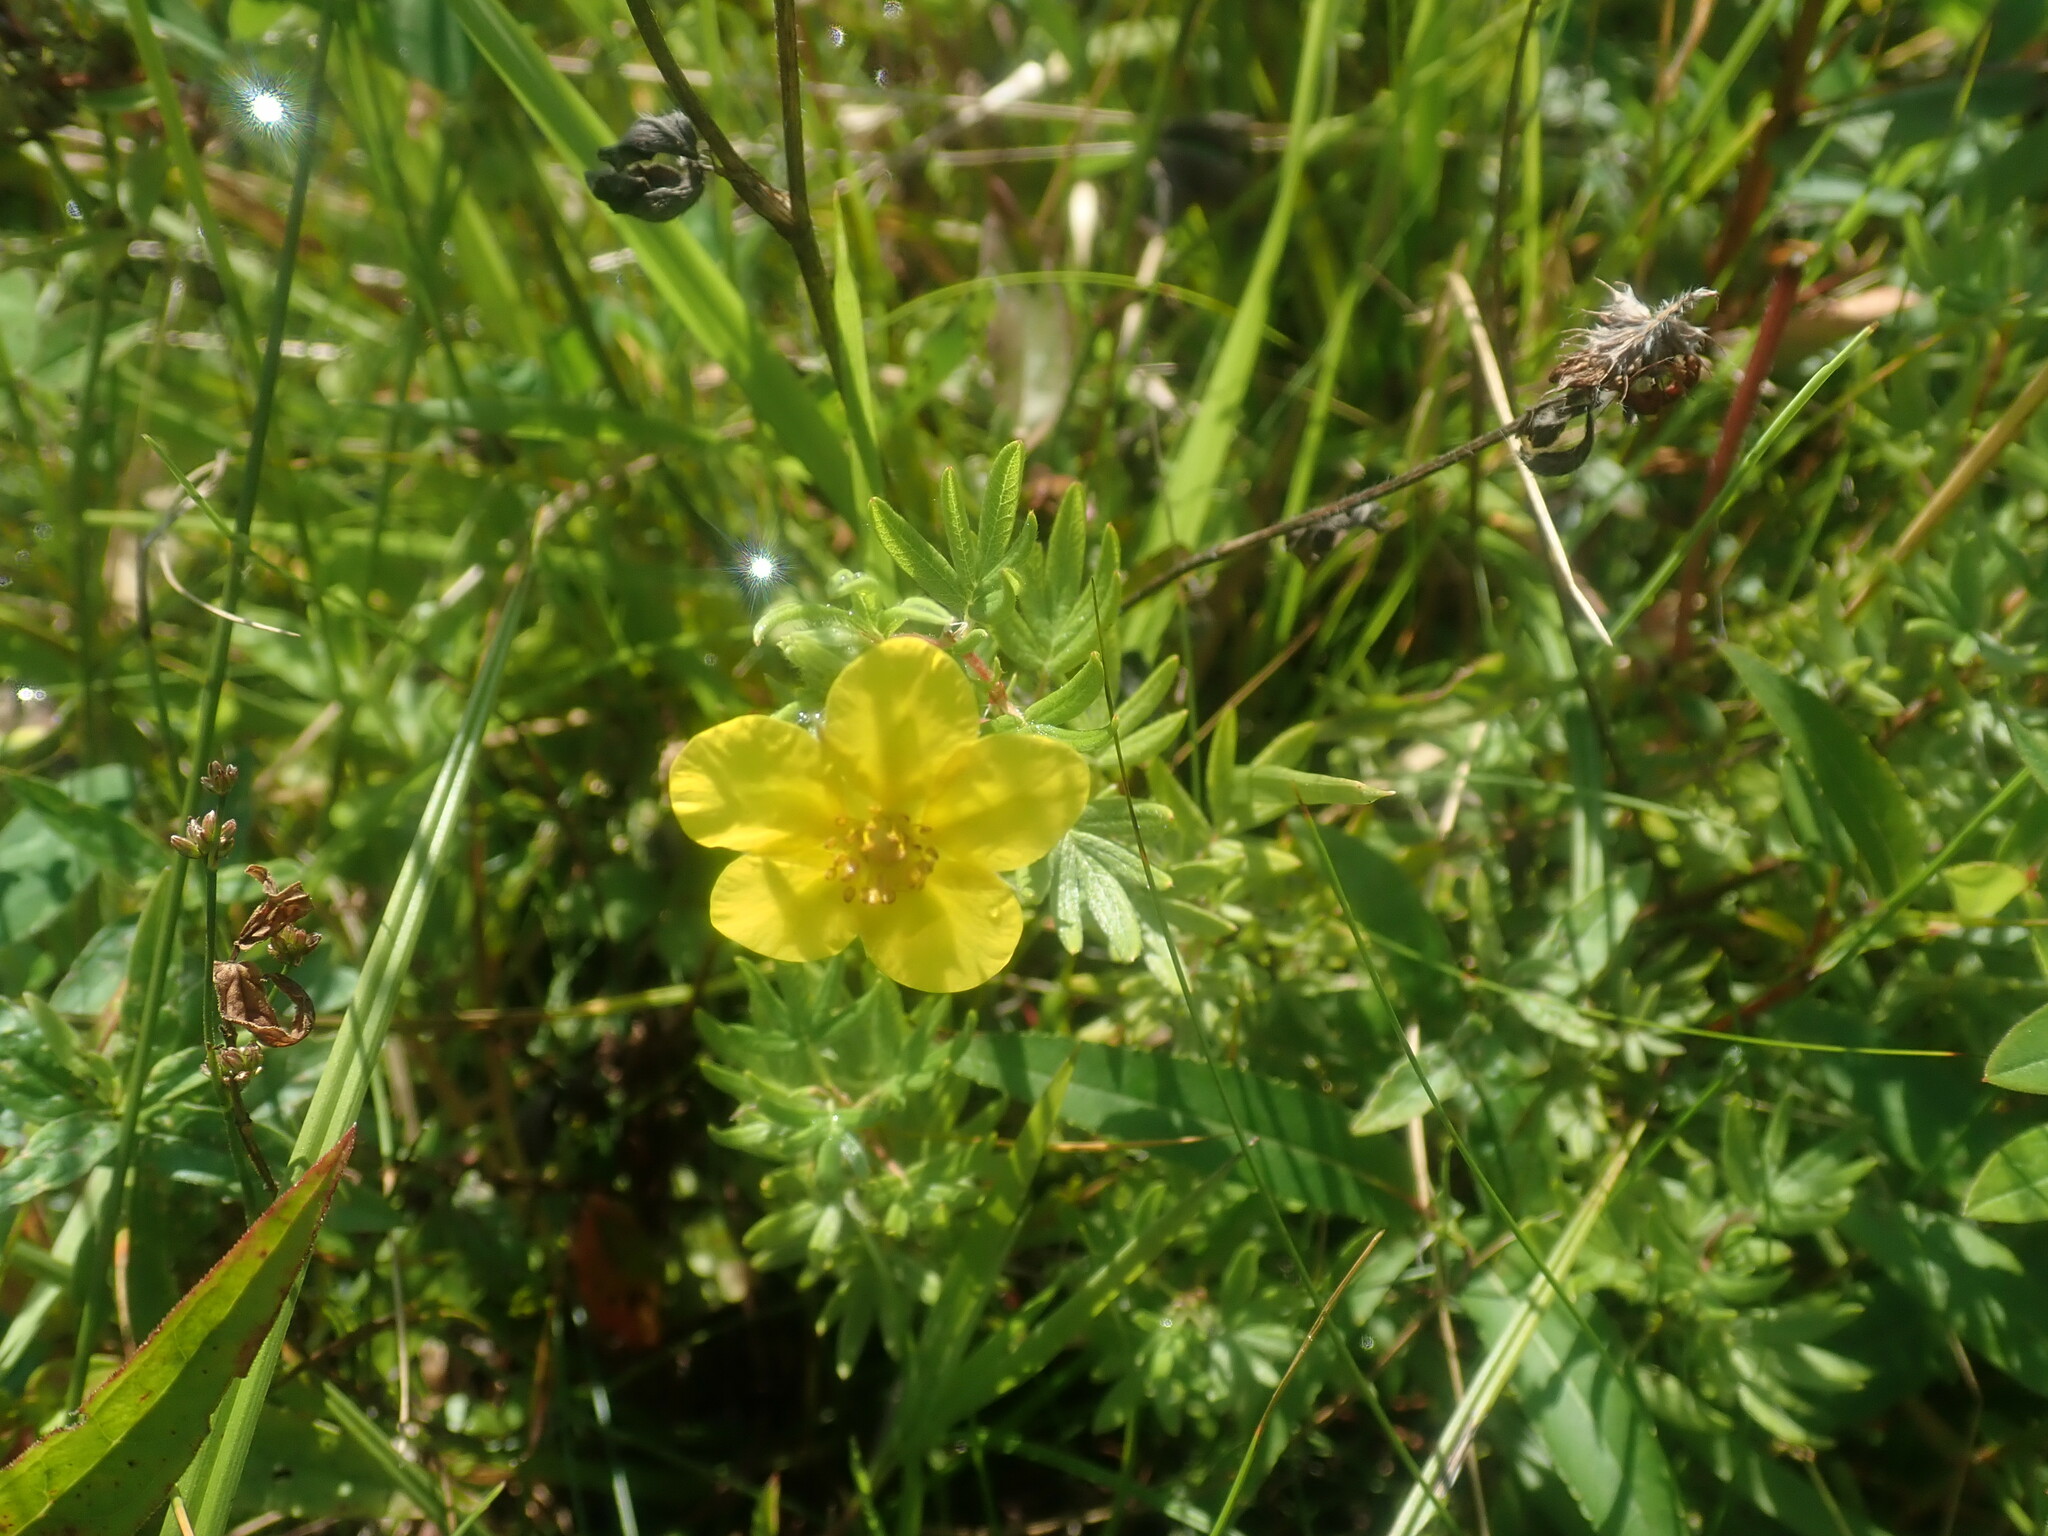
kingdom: Plantae
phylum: Tracheophyta
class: Magnoliopsida
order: Rosales
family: Rosaceae
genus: Dasiphora
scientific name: Dasiphora fruticosa
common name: Shrubby cinquefoil
